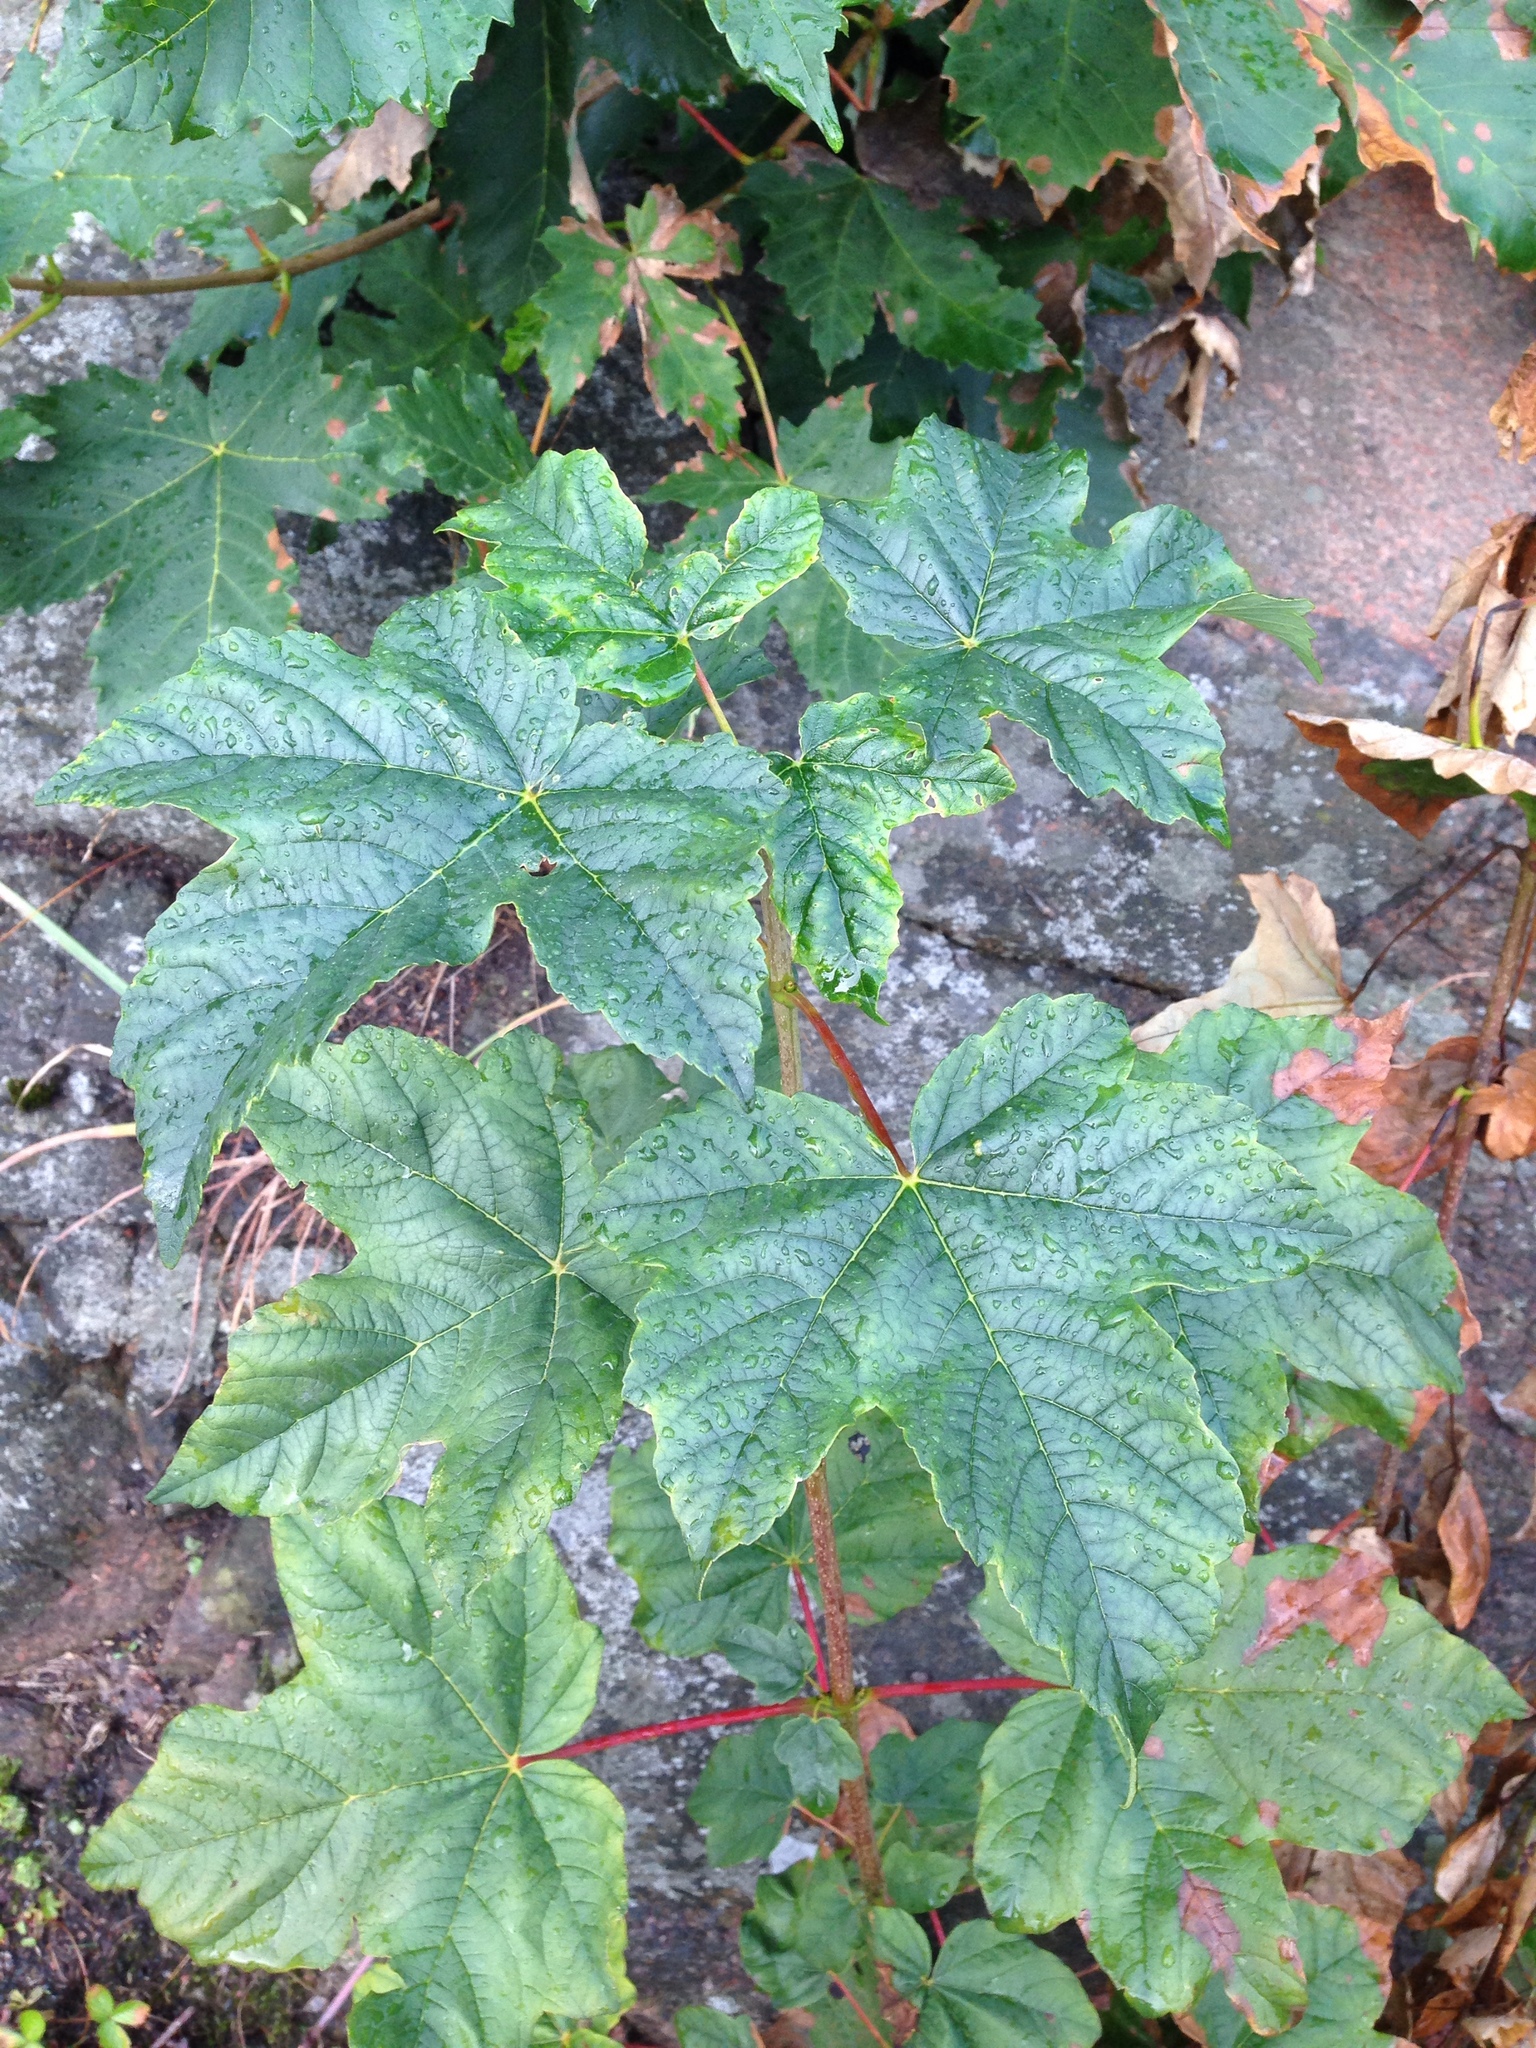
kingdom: Plantae
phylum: Tracheophyta
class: Magnoliopsida
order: Sapindales
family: Sapindaceae
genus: Acer
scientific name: Acer pseudoplatanus
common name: Sycamore
